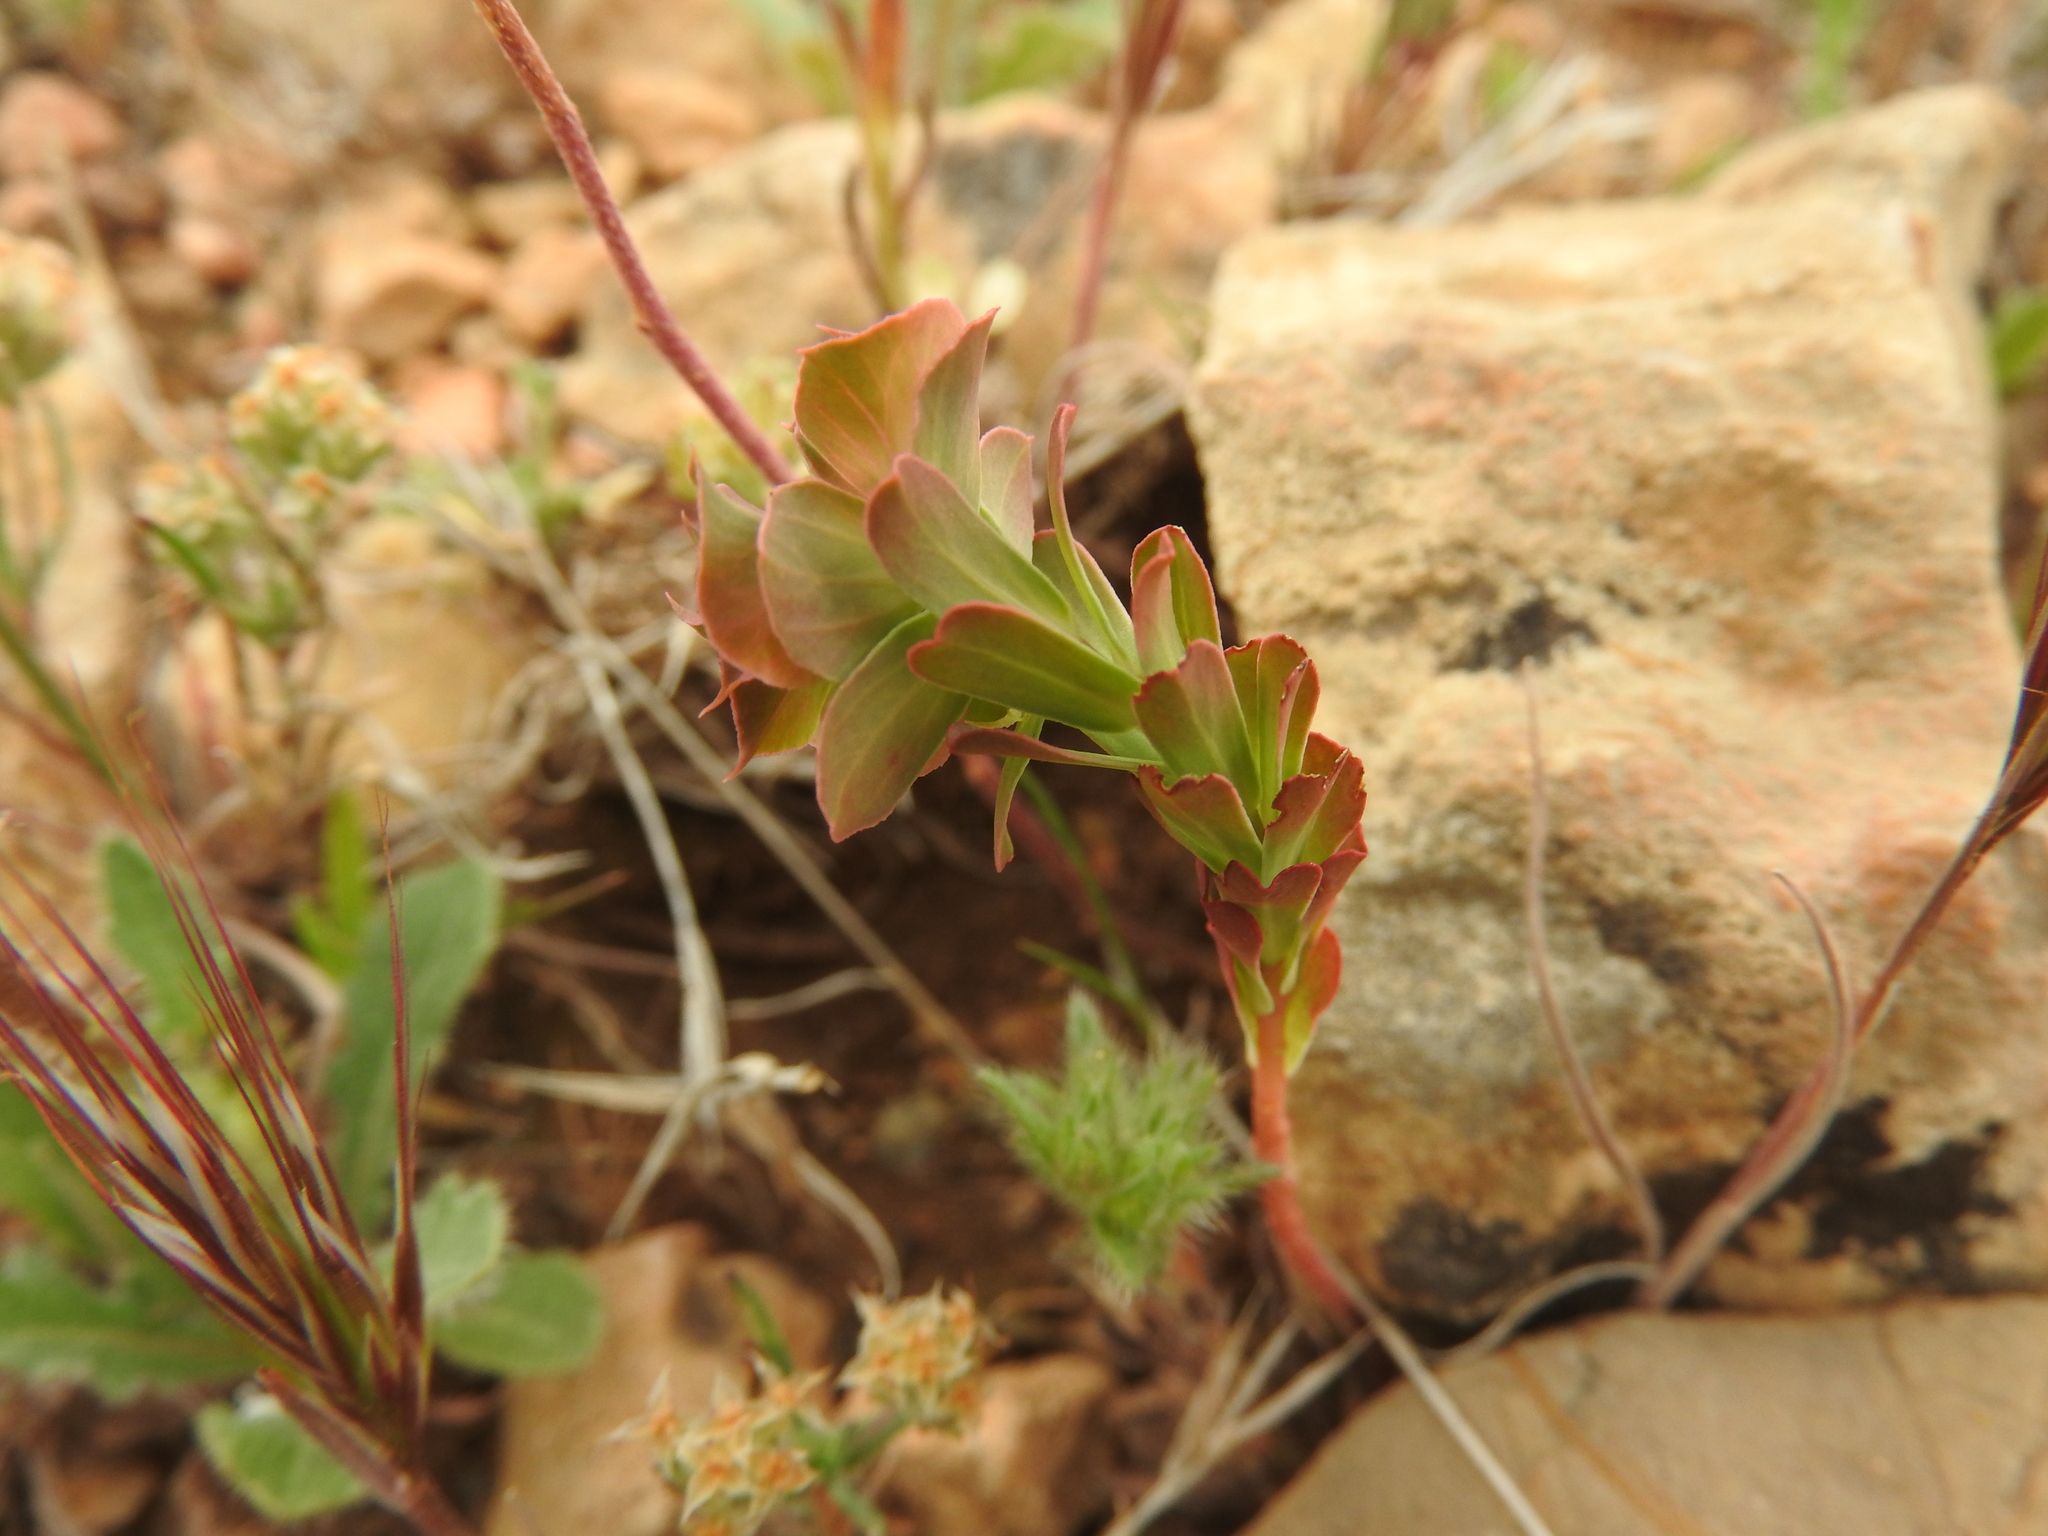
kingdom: Plantae
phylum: Tracheophyta
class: Magnoliopsida
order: Malpighiales
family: Euphorbiaceae
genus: Euphorbia
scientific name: Euphorbia hieroglyphica
